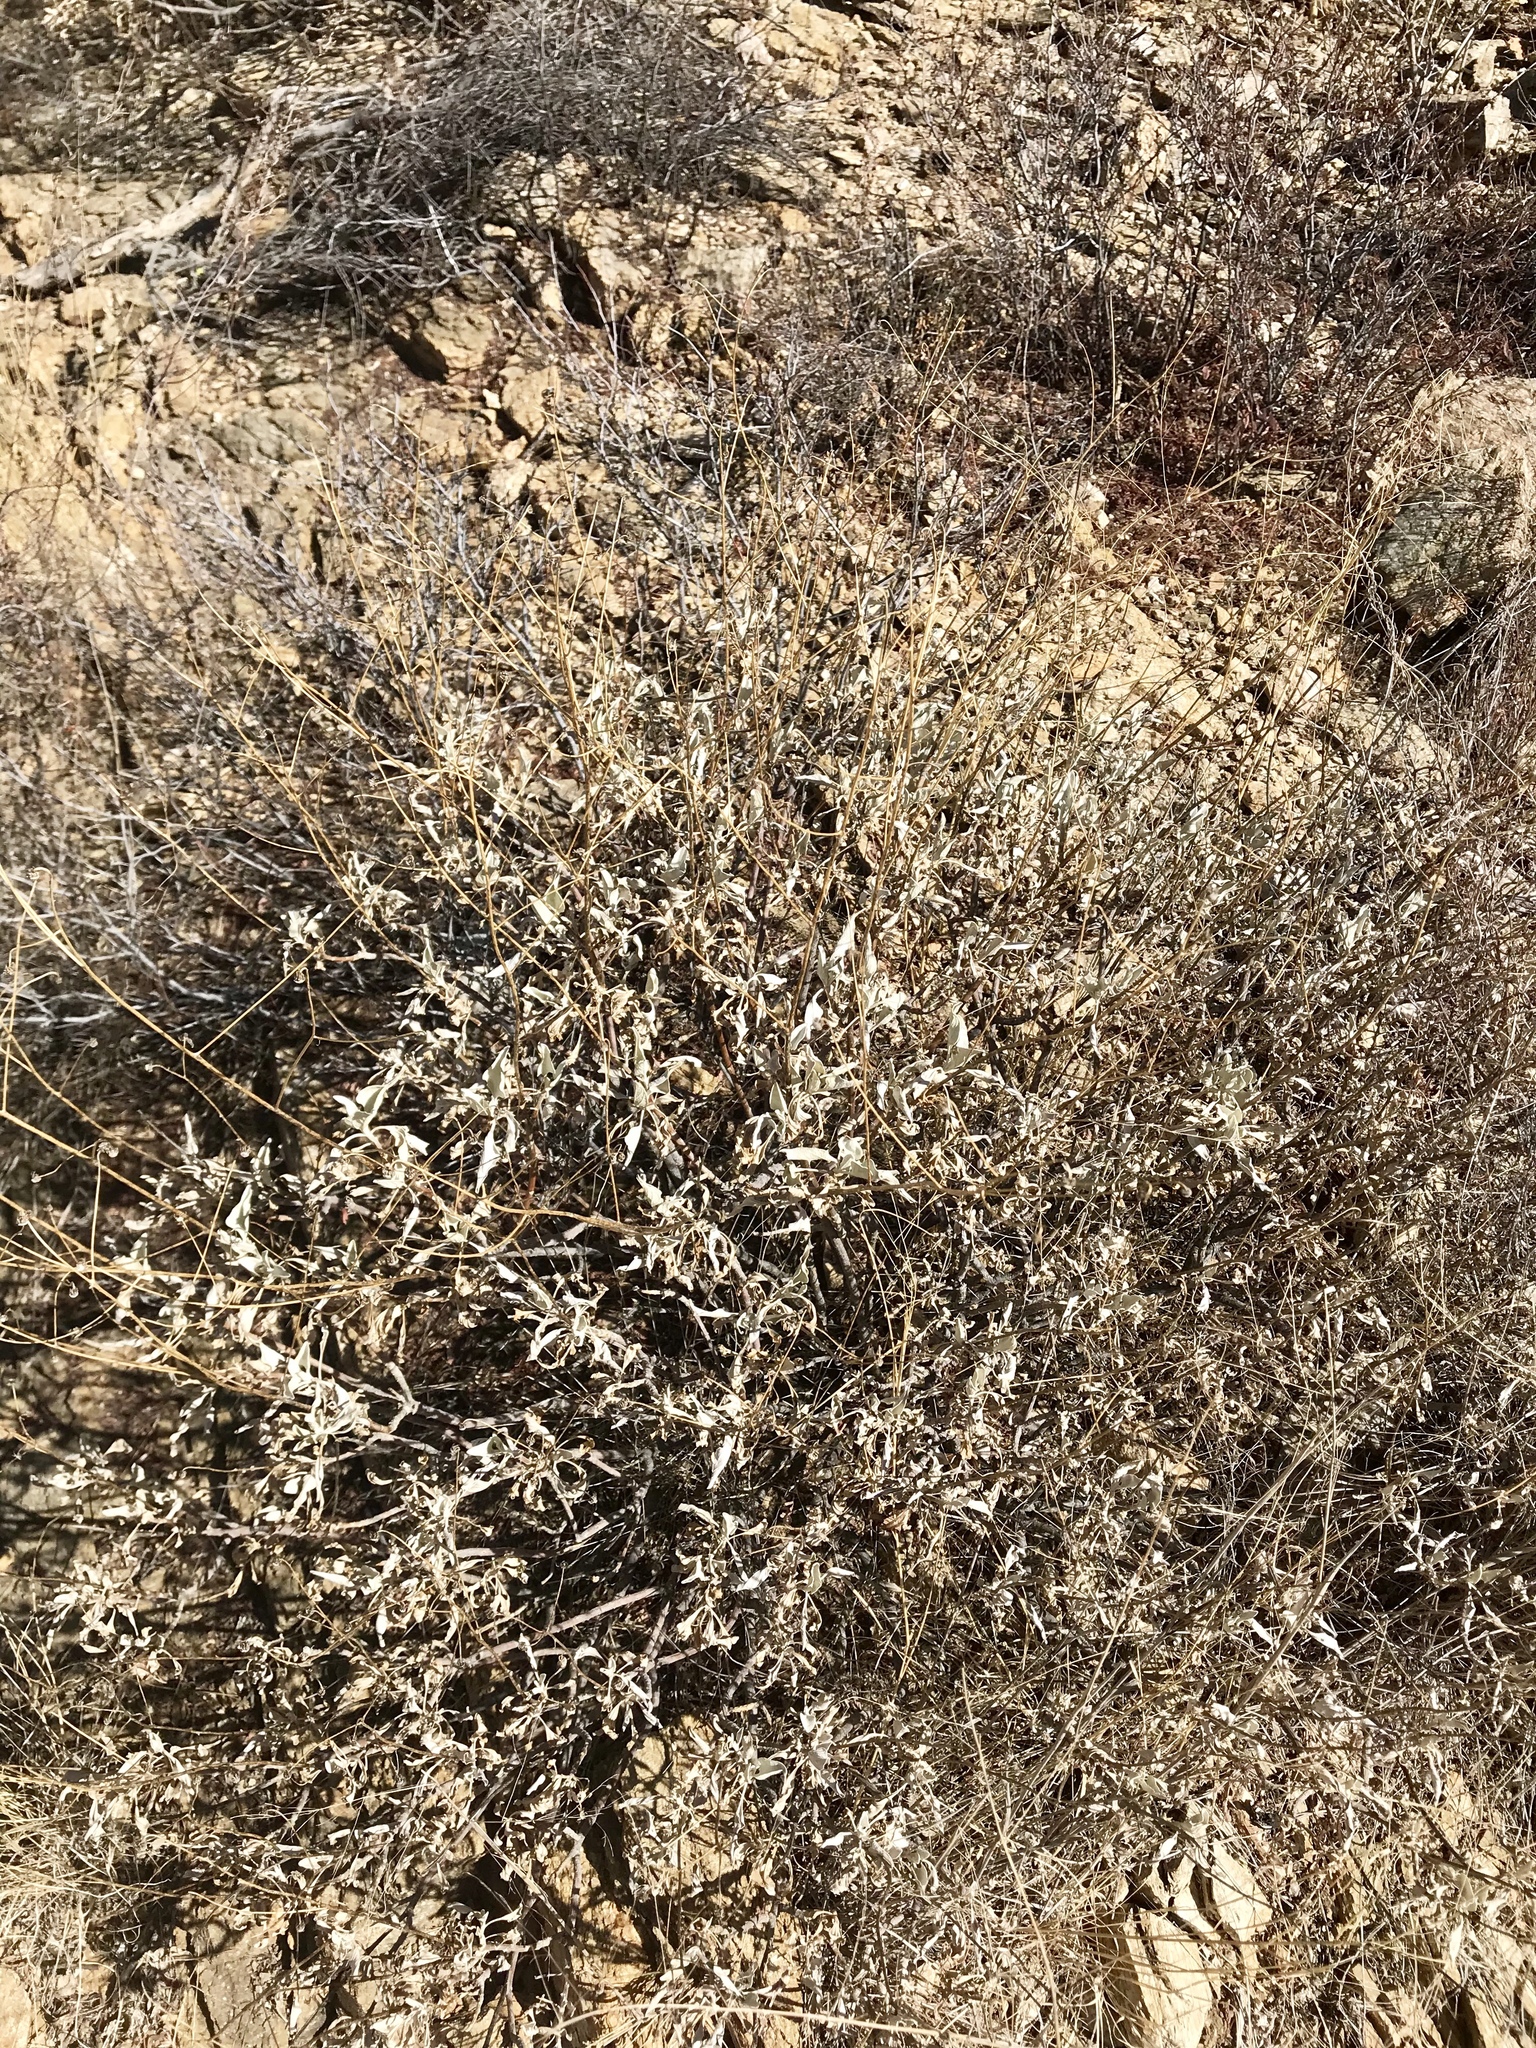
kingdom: Plantae
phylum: Tracheophyta
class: Magnoliopsida
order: Asterales
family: Asteraceae
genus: Ambrosia
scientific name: Ambrosia deltoidea
